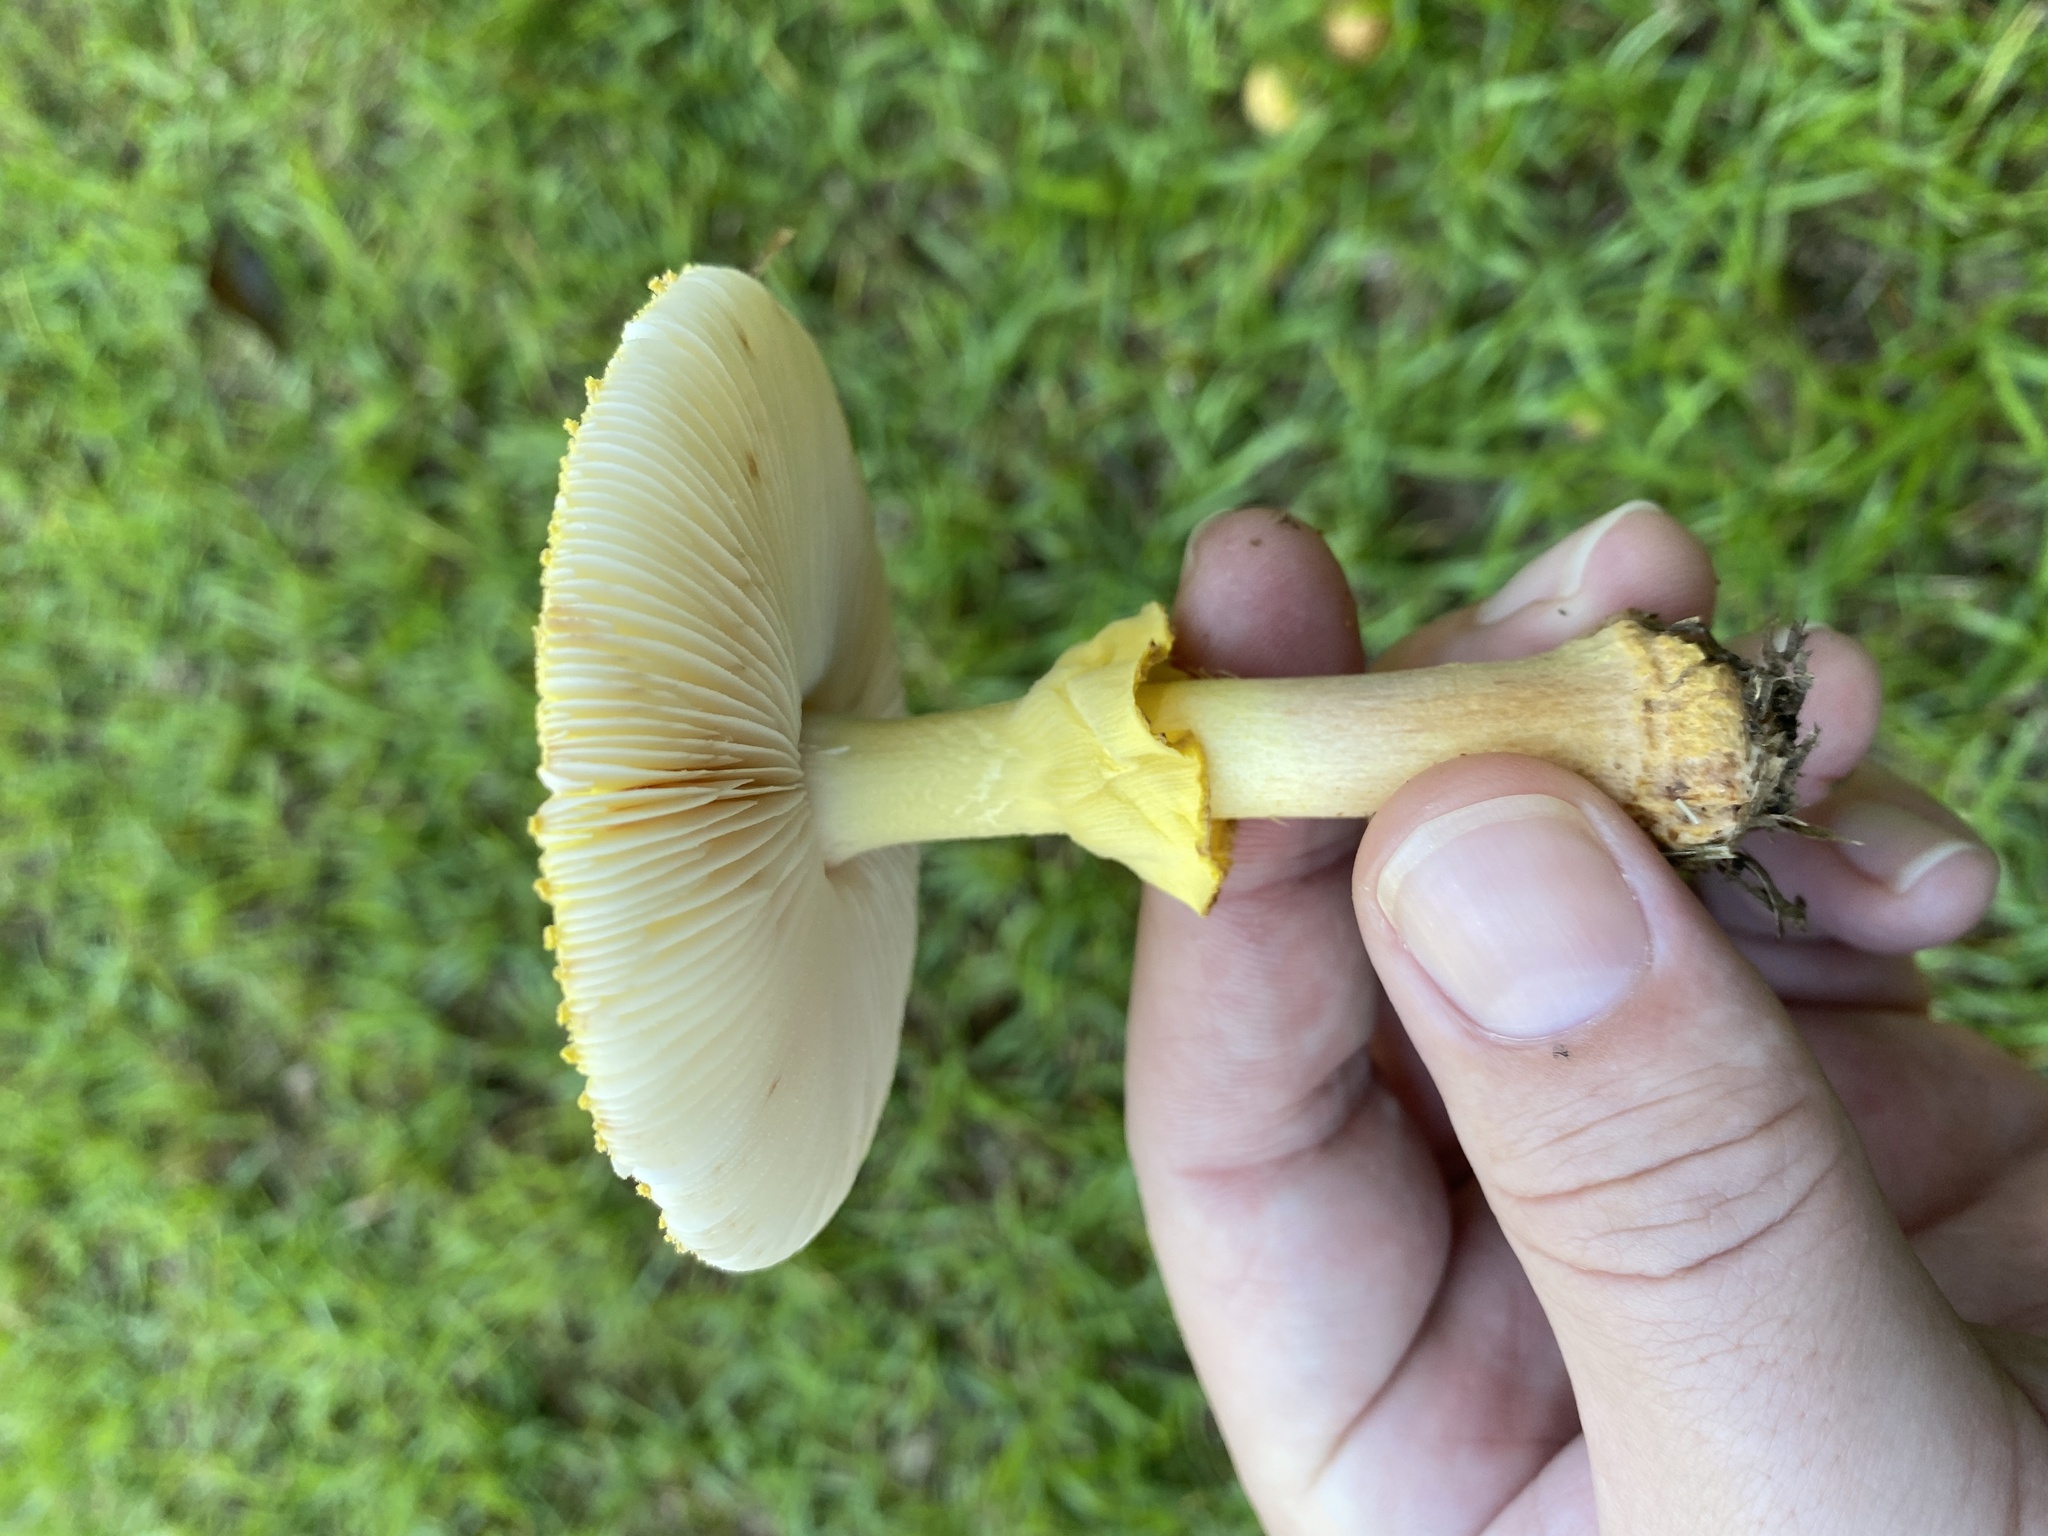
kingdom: Fungi
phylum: Basidiomycota
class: Agaricomycetes
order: Agaricales
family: Amanitaceae
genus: Amanita
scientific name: Amanita flavorubens
